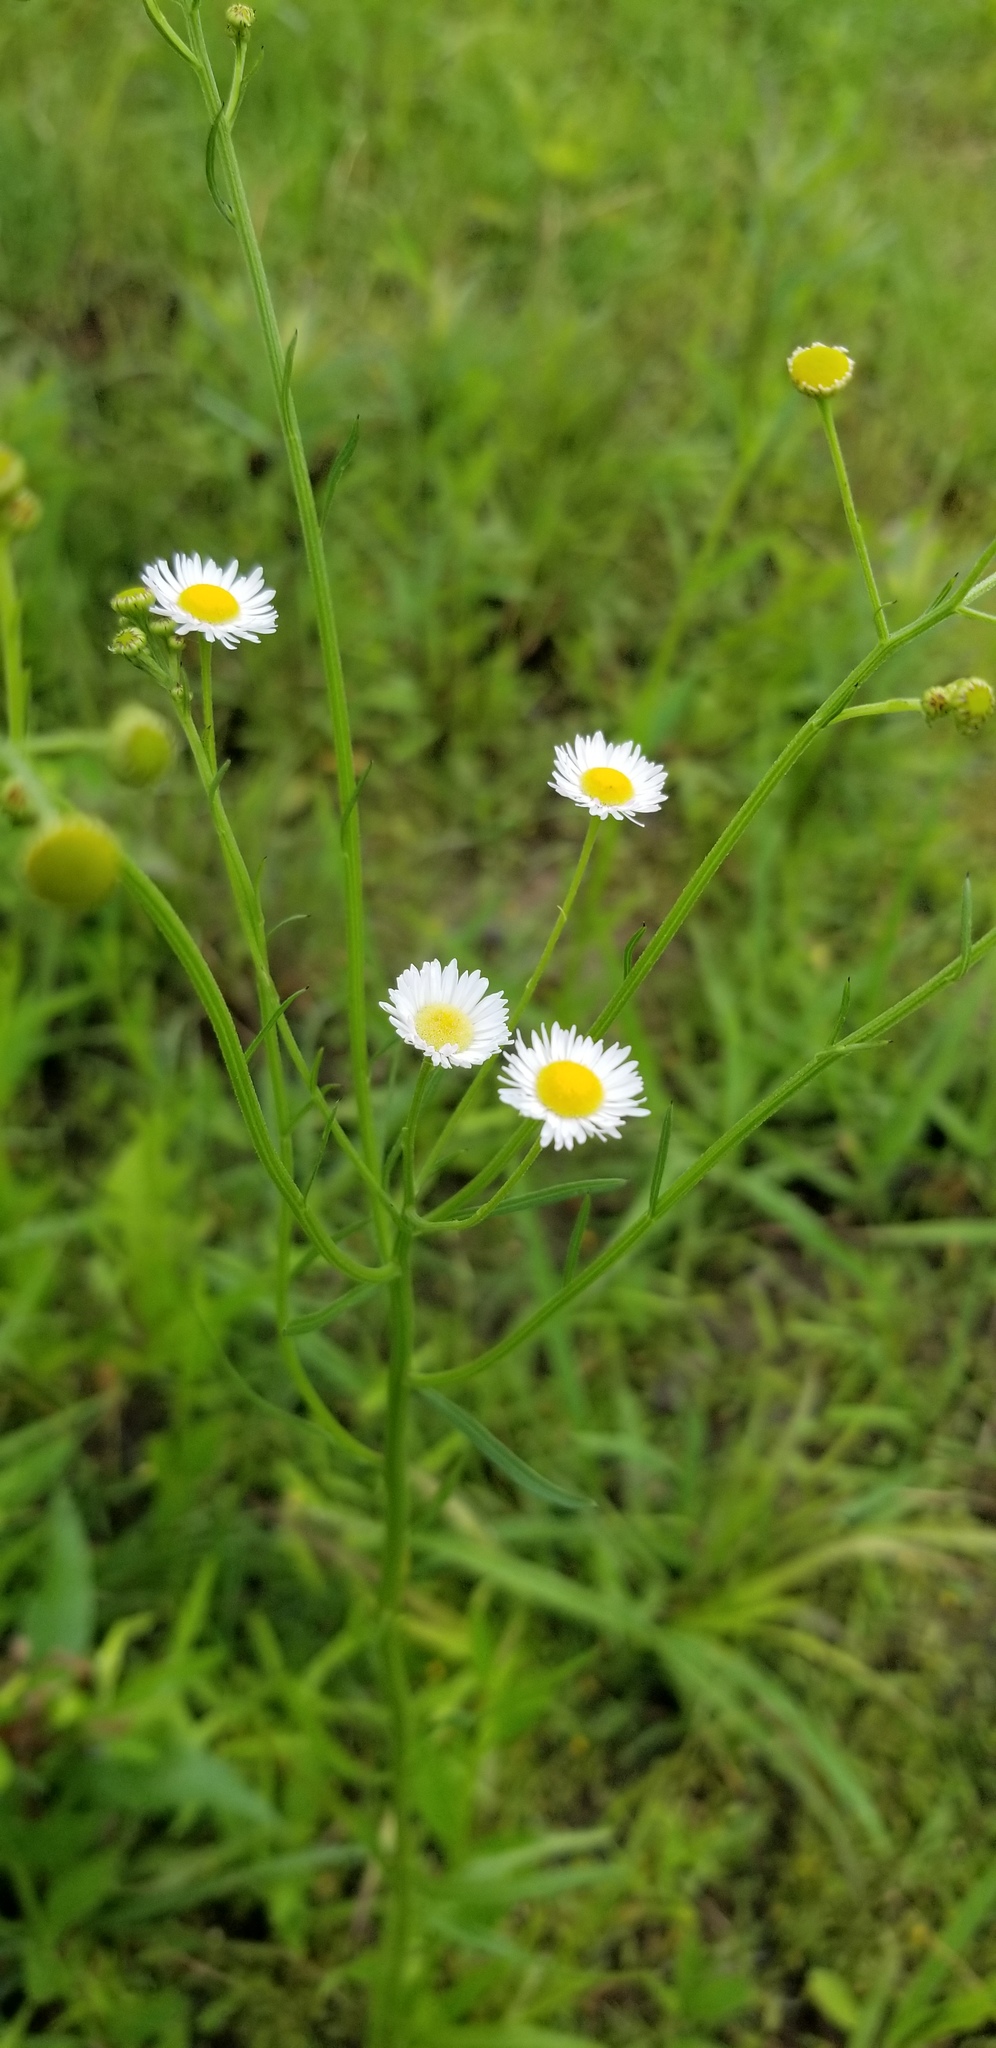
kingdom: Plantae
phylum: Tracheophyta
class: Magnoliopsida
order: Asterales
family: Asteraceae
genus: Erigeron
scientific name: Erigeron strigosus
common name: Common eastern fleabane
